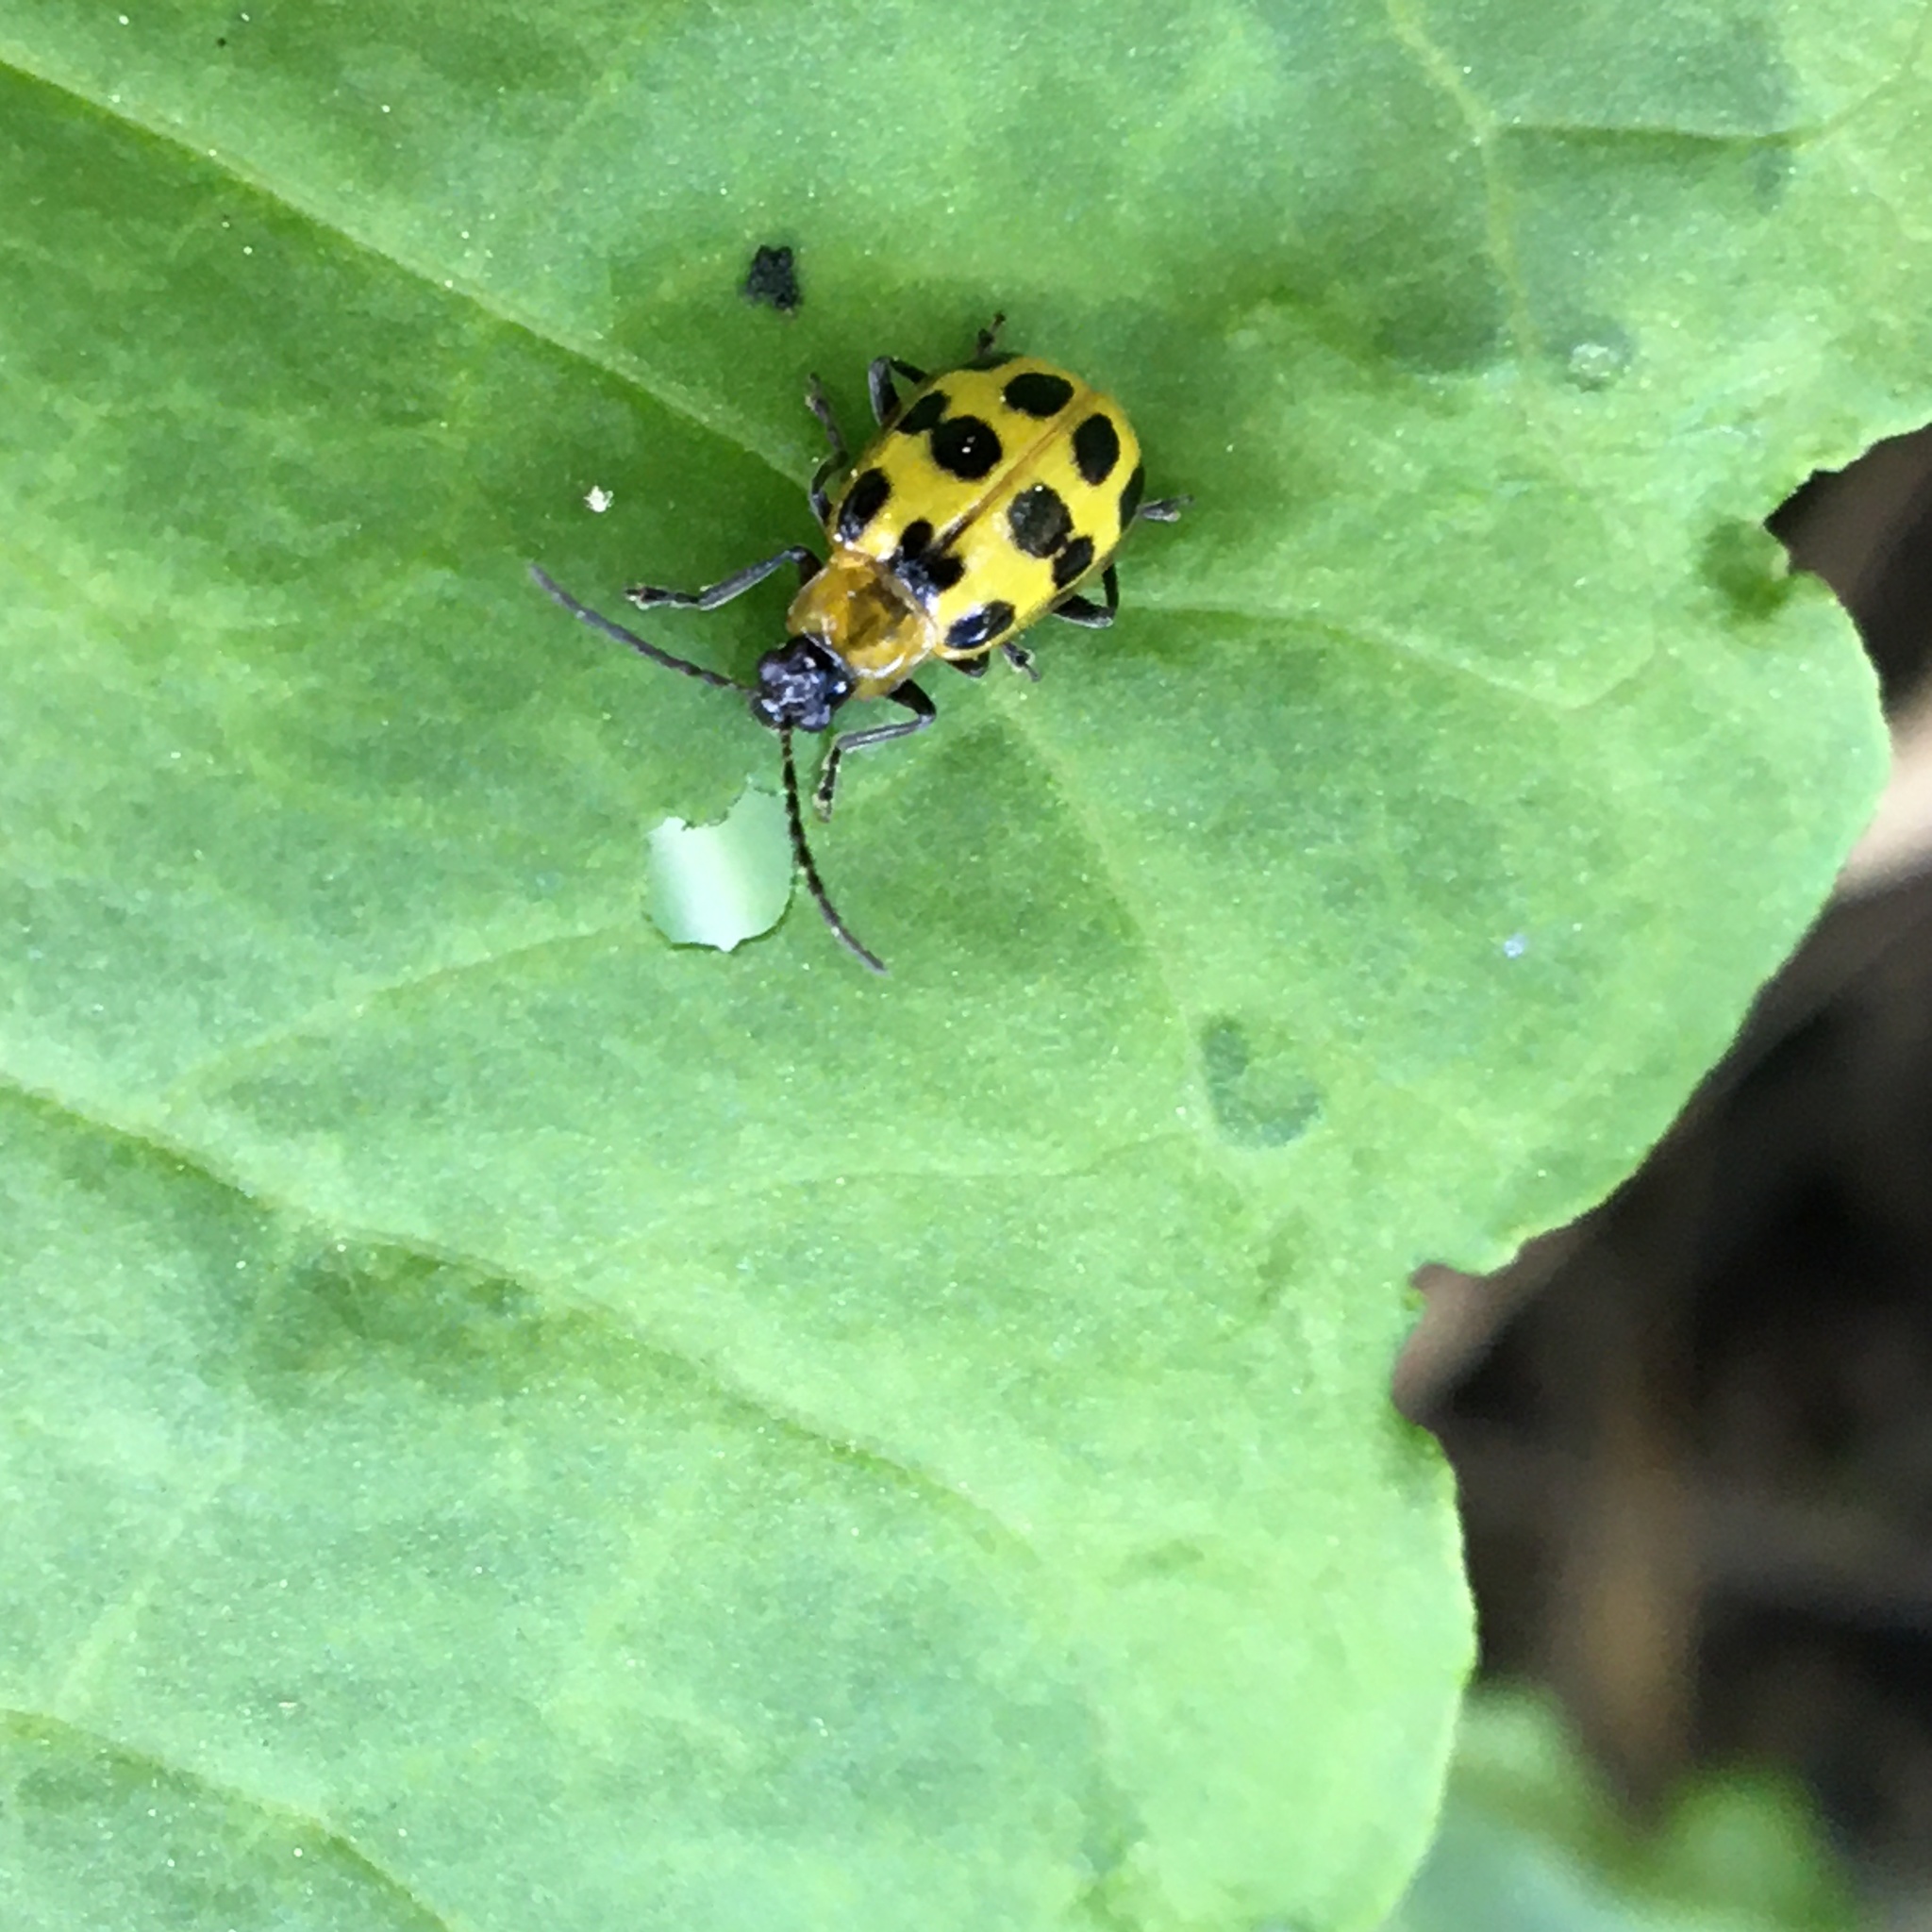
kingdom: Animalia
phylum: Arthropoda
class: Insecta
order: Coleoptera
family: Chrysomelidae
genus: Diabrotica
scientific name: Diabrotica undecimpunctata
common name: Spotted cucumber beetle
